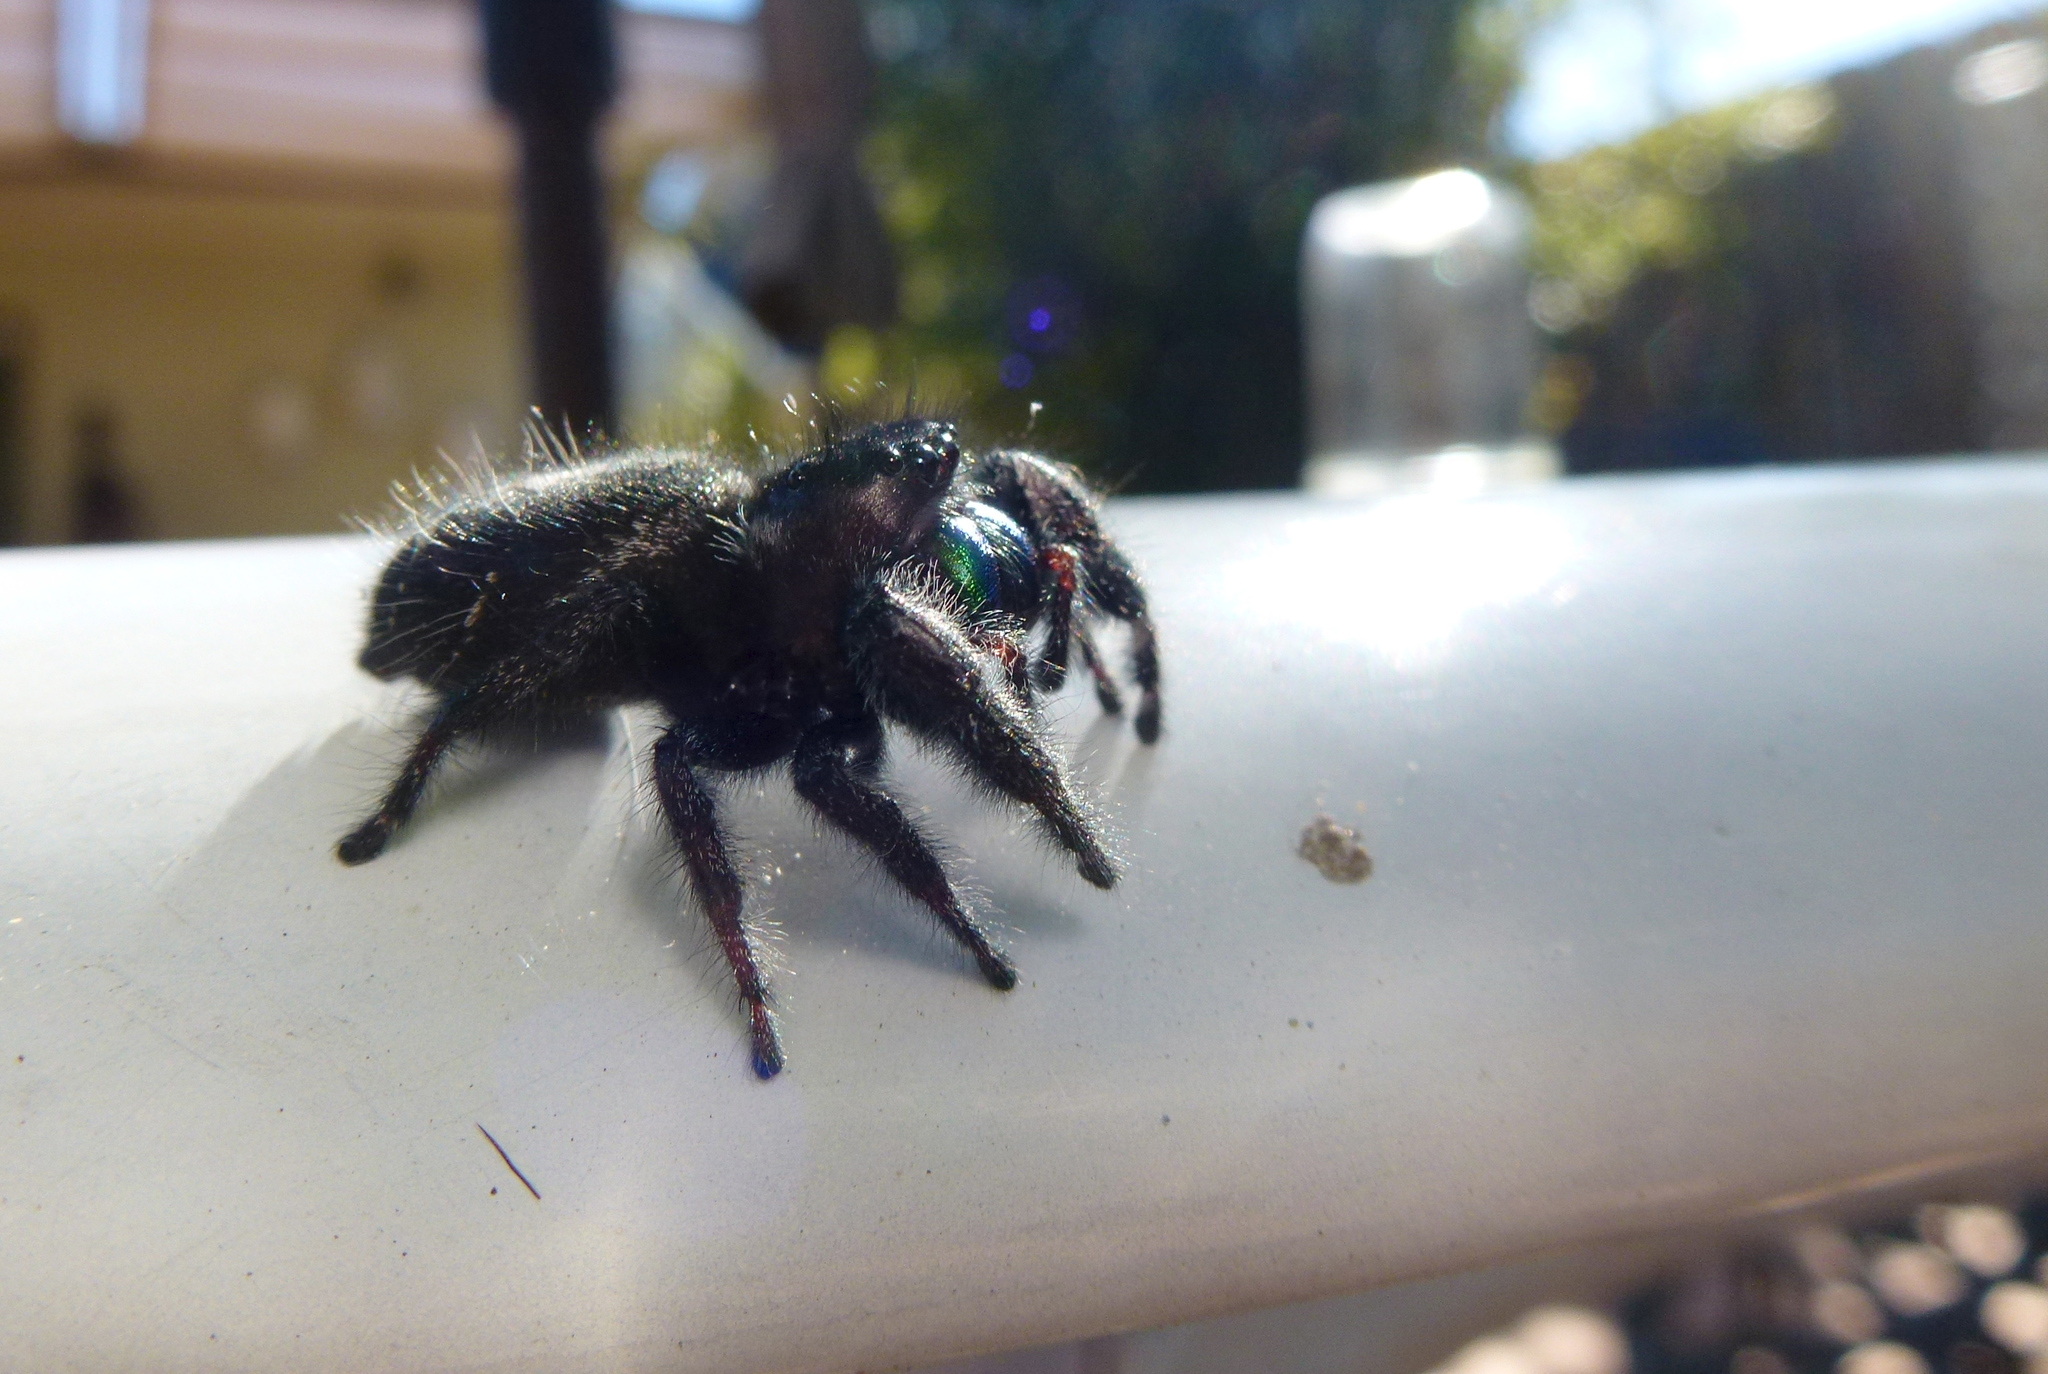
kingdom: Animalia
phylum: Arthropoda
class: Arachnida
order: Araneae
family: Salticidae
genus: Phidippus
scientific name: Phidippus audax
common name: Bold jumper
